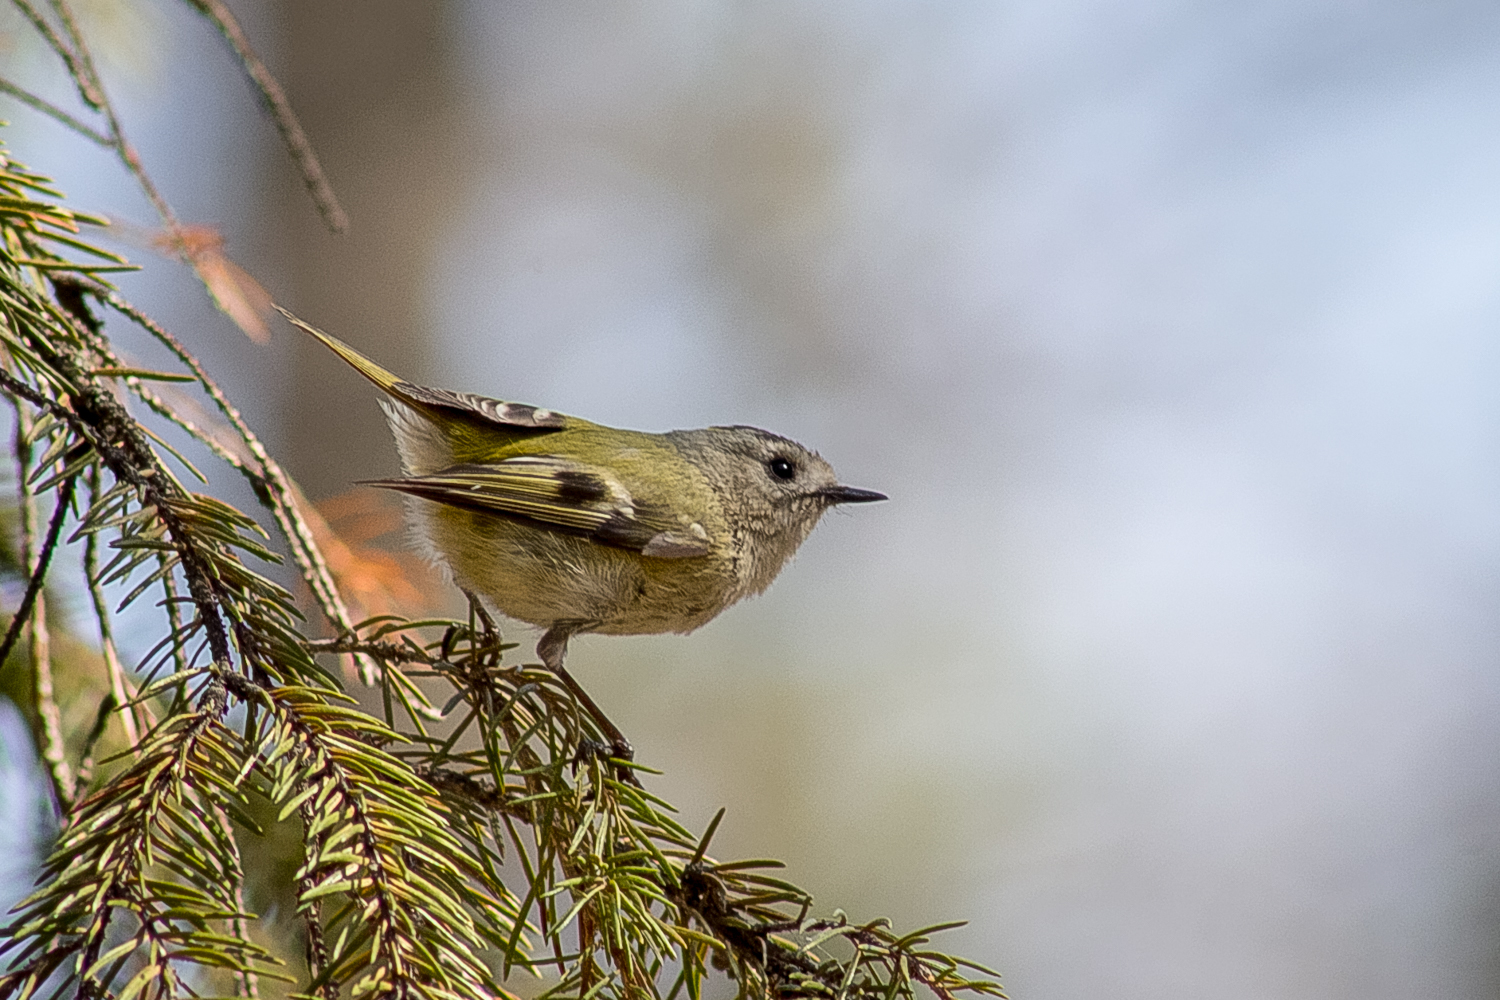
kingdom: Animalia
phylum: Chordata
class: Aves
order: Passeriformes
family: Regulidae
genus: Regulus
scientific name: Regulus regulus
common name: Goldcrest
